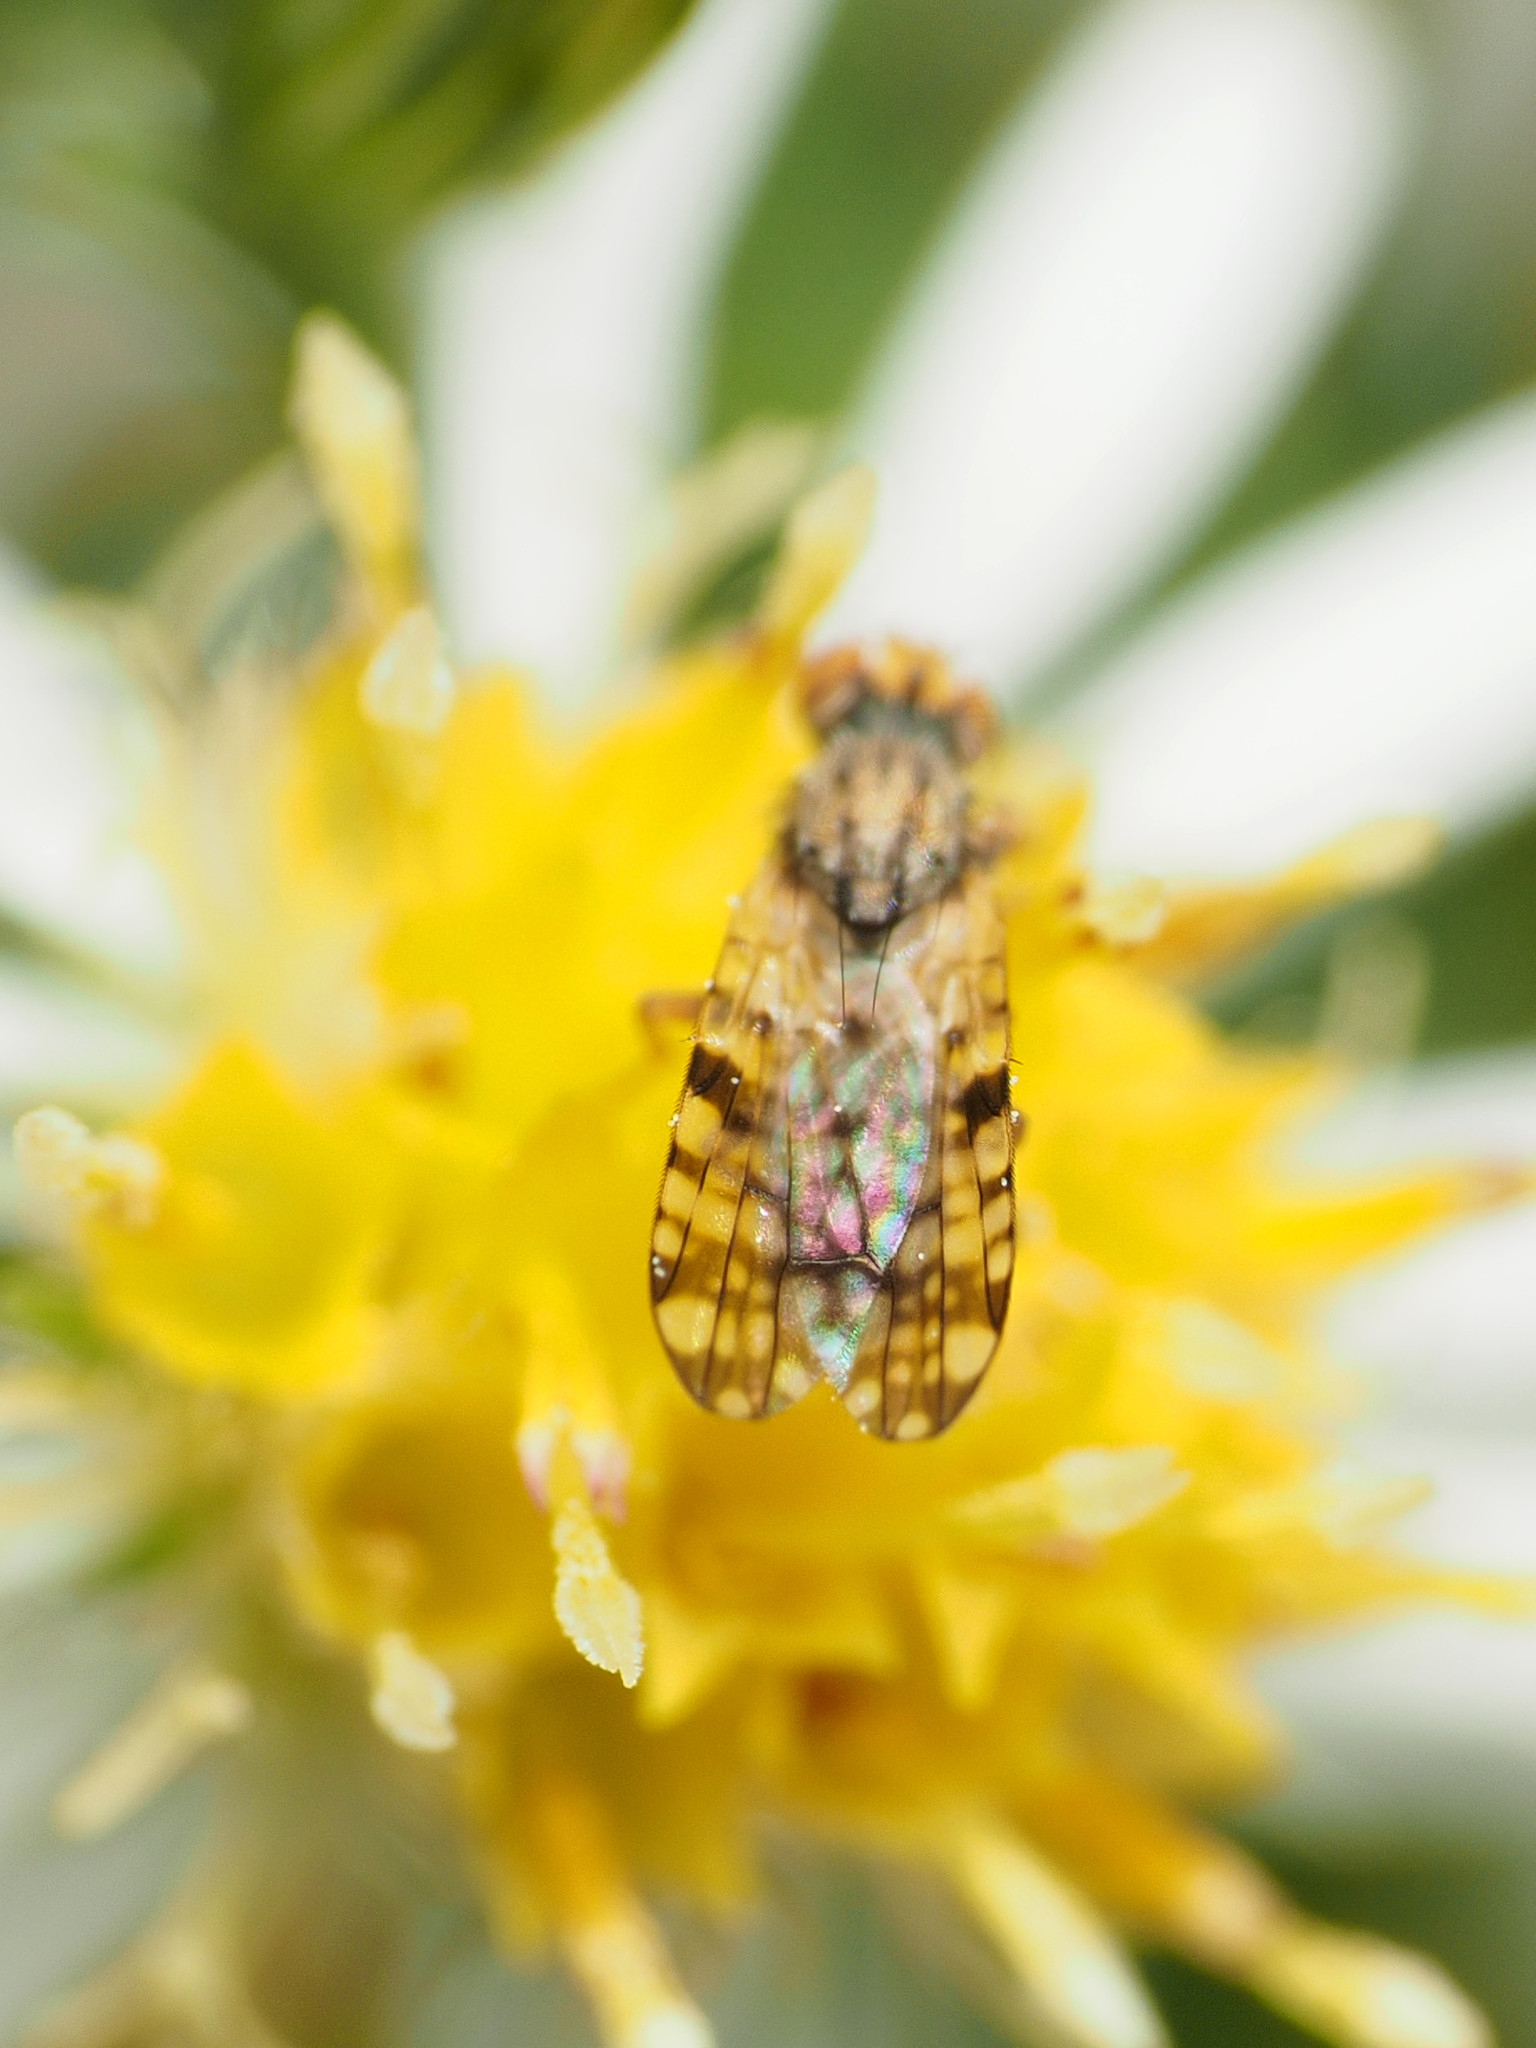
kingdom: Animalia
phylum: Arthropoda
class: Insecta
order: Diptera
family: Tephritidae
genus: Dioxyna
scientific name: Dioxyna picciola
